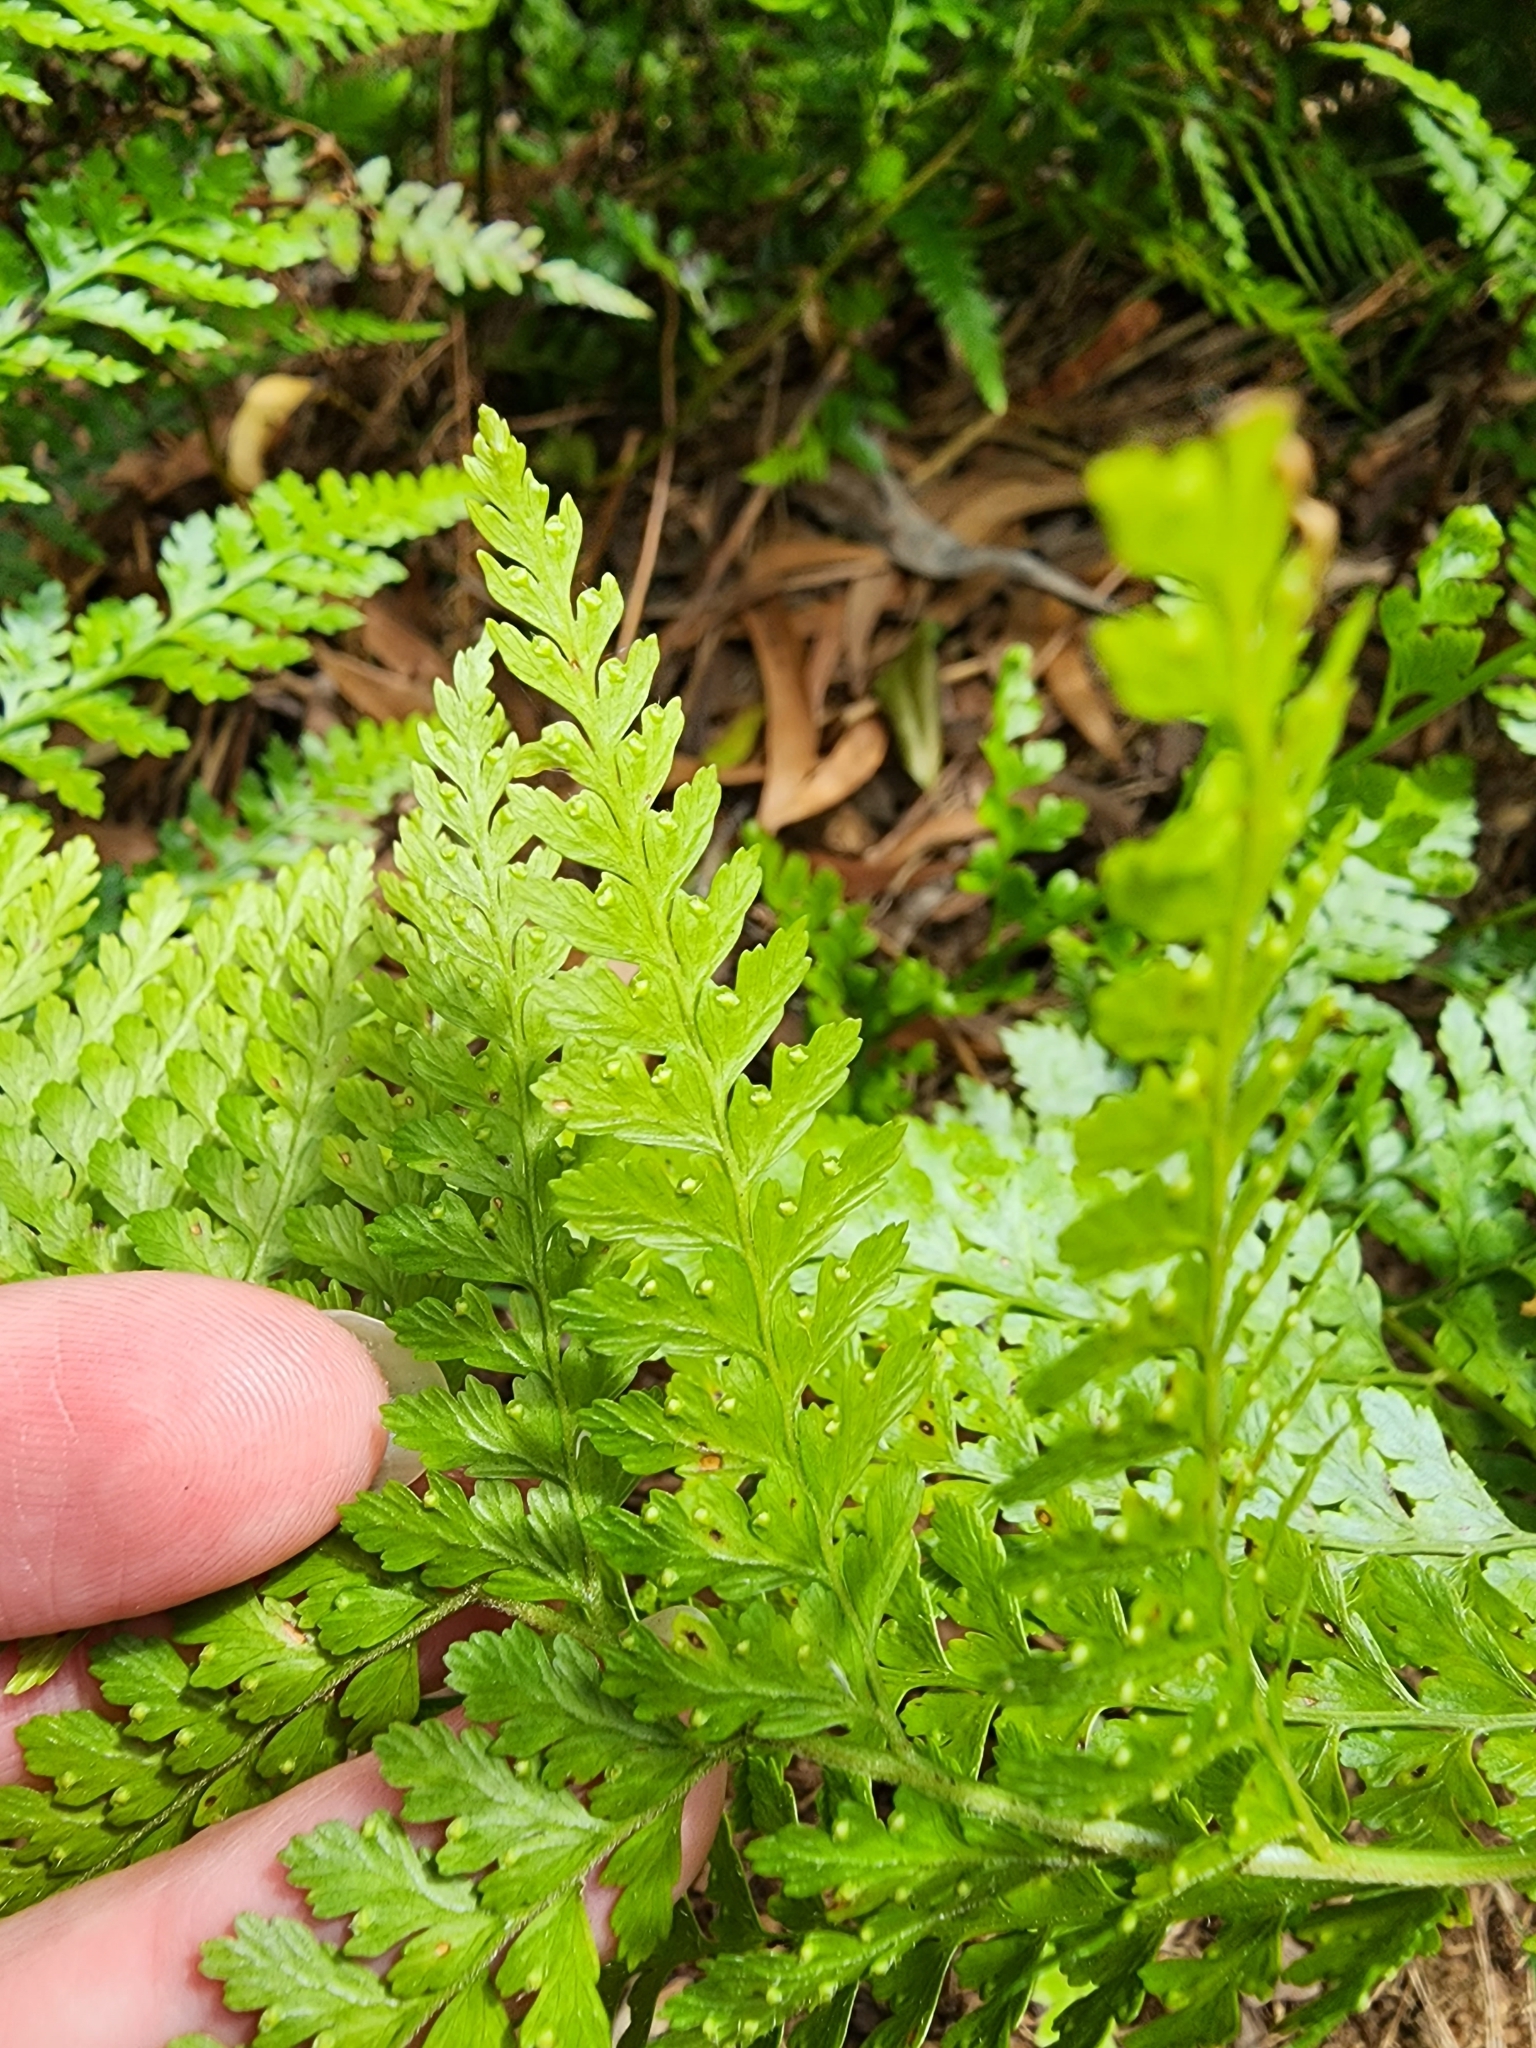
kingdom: Plantae
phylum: Tracheophyta
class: Polypodiopsida
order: Polypodiales
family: Dennstaedtiaceae
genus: Microlepia
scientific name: Microlepia setosa
